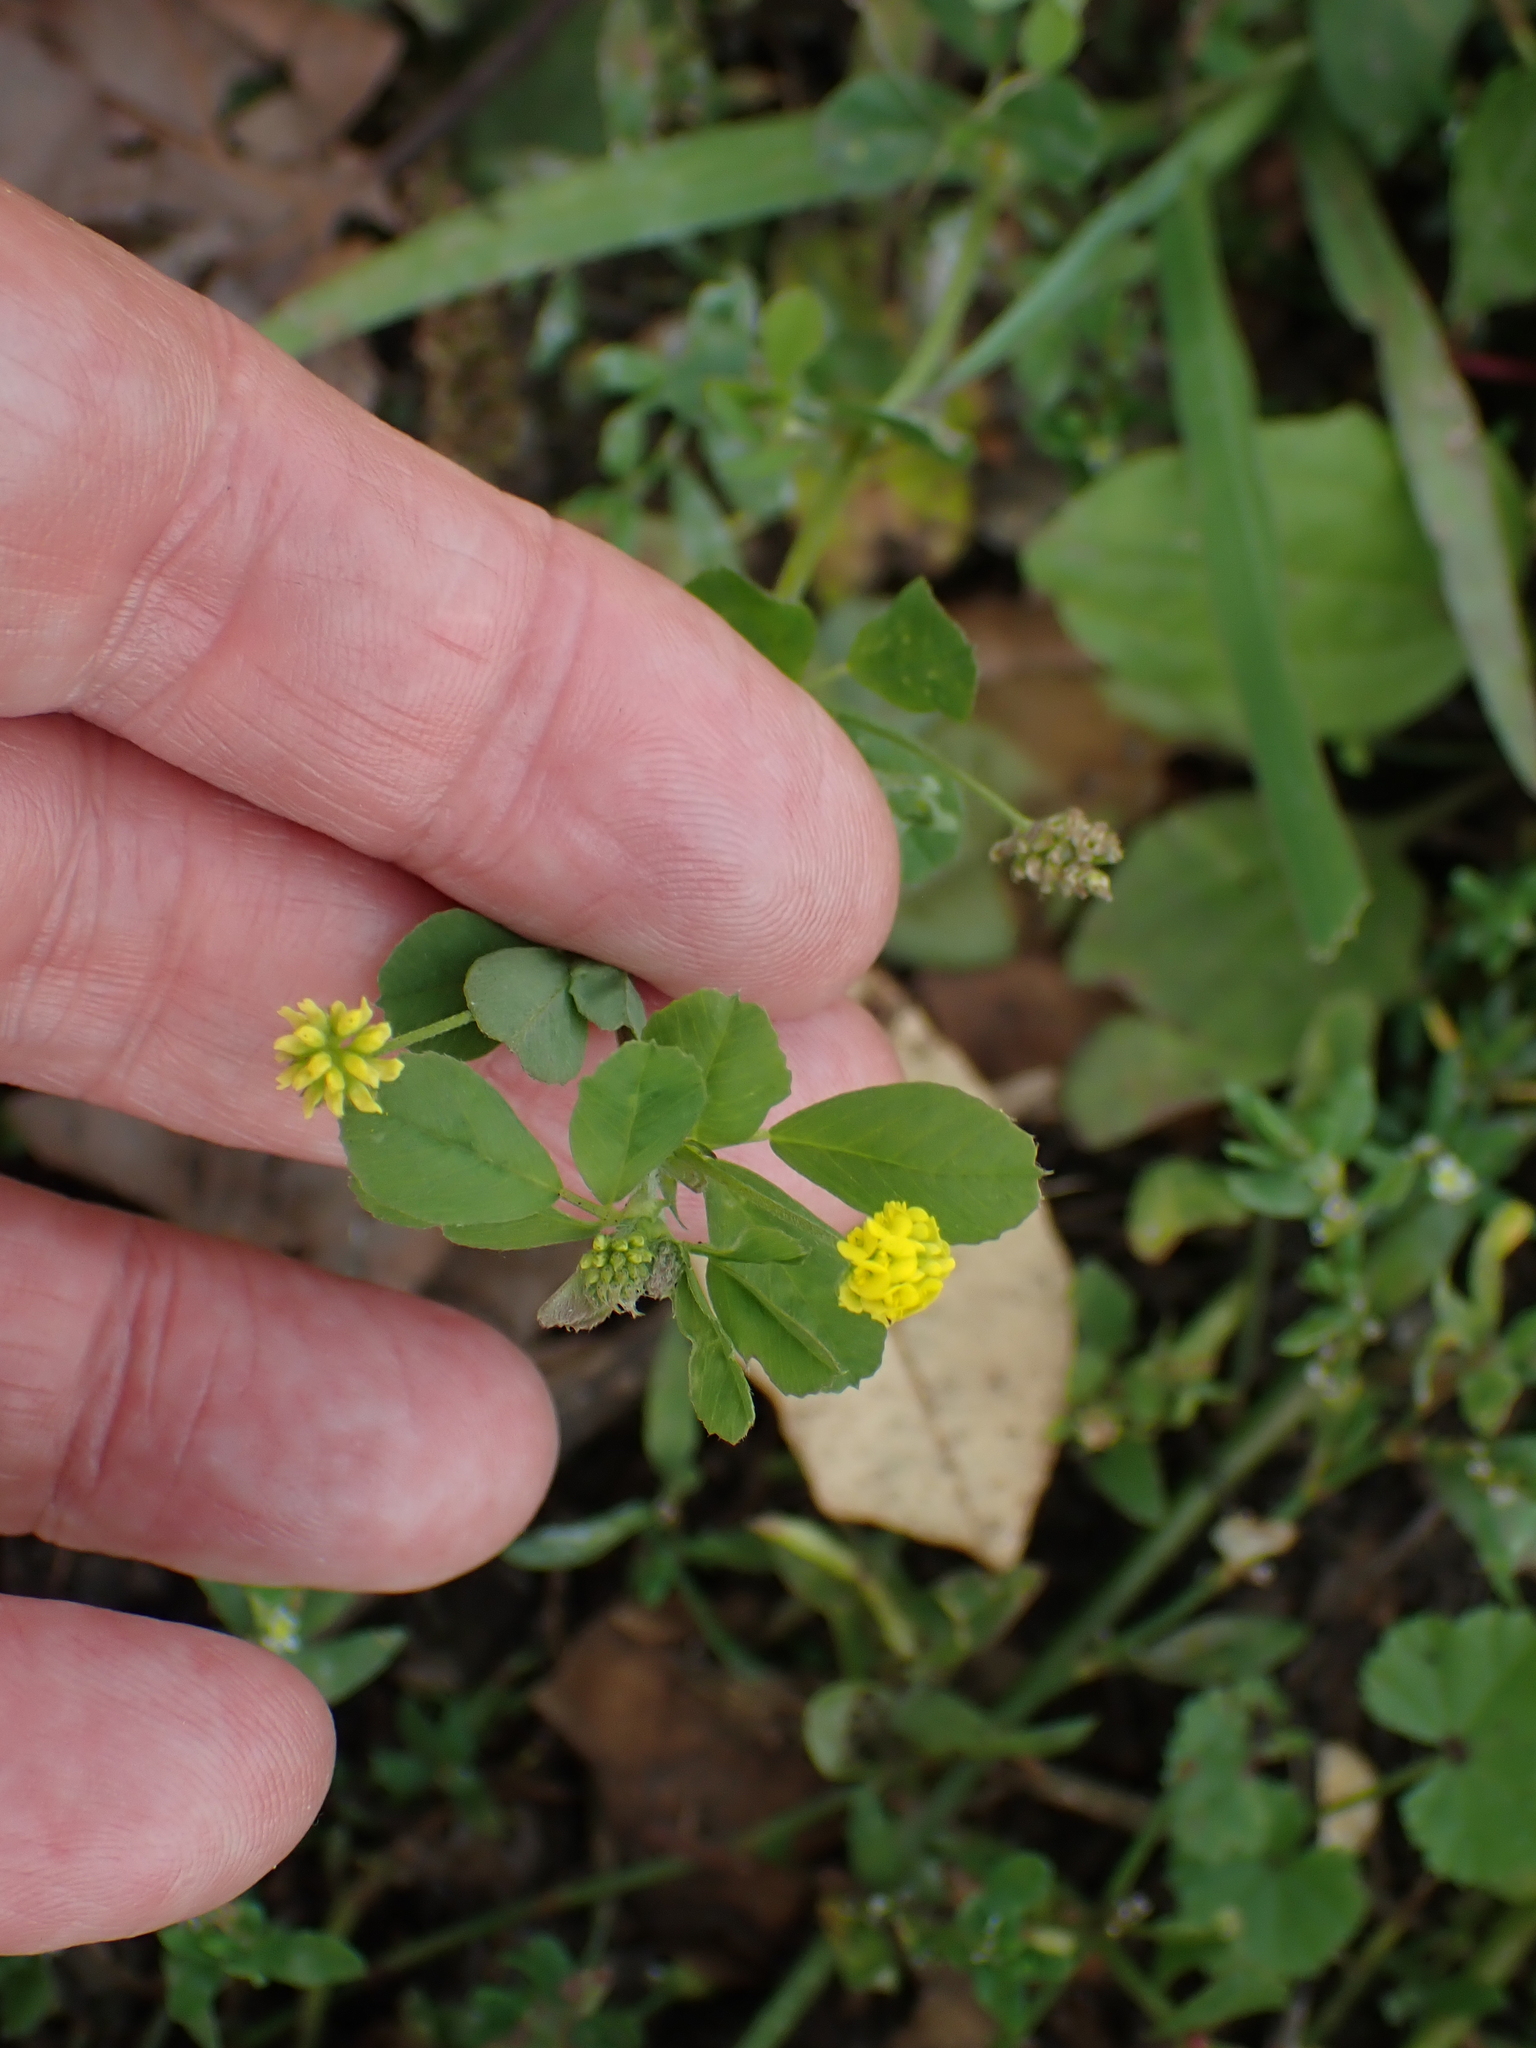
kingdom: Plantae
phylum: Tracheophyta
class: Magnoliopsida
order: Fabales
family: Fabaceae
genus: Medicago
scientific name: Medicago lupulina
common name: Black medick
